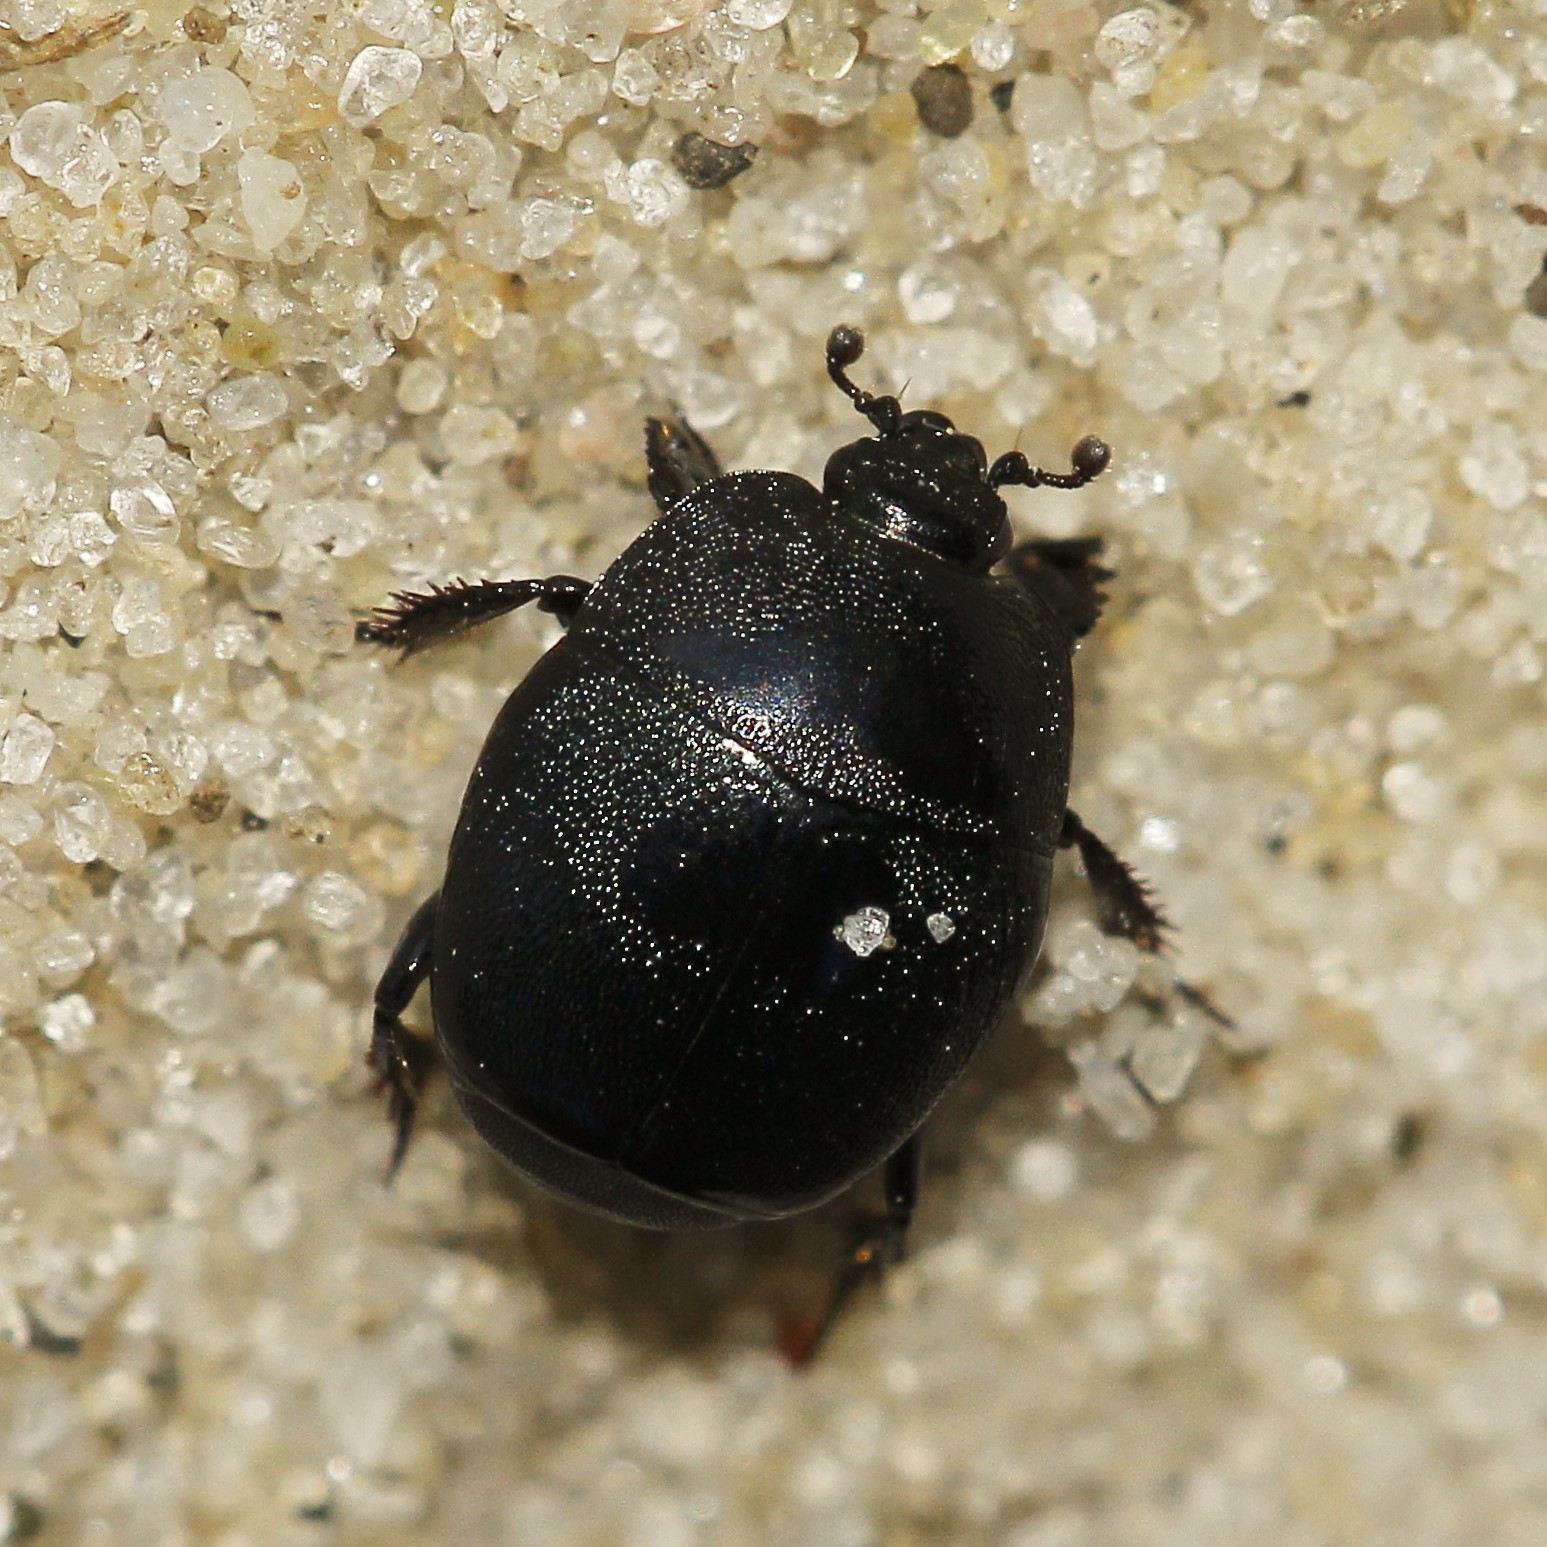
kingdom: Animalia
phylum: Arthropoda
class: Insecta
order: Coleoptera
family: Histeridae
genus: Hypocaccus
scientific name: Hypocaccus rugiceps
